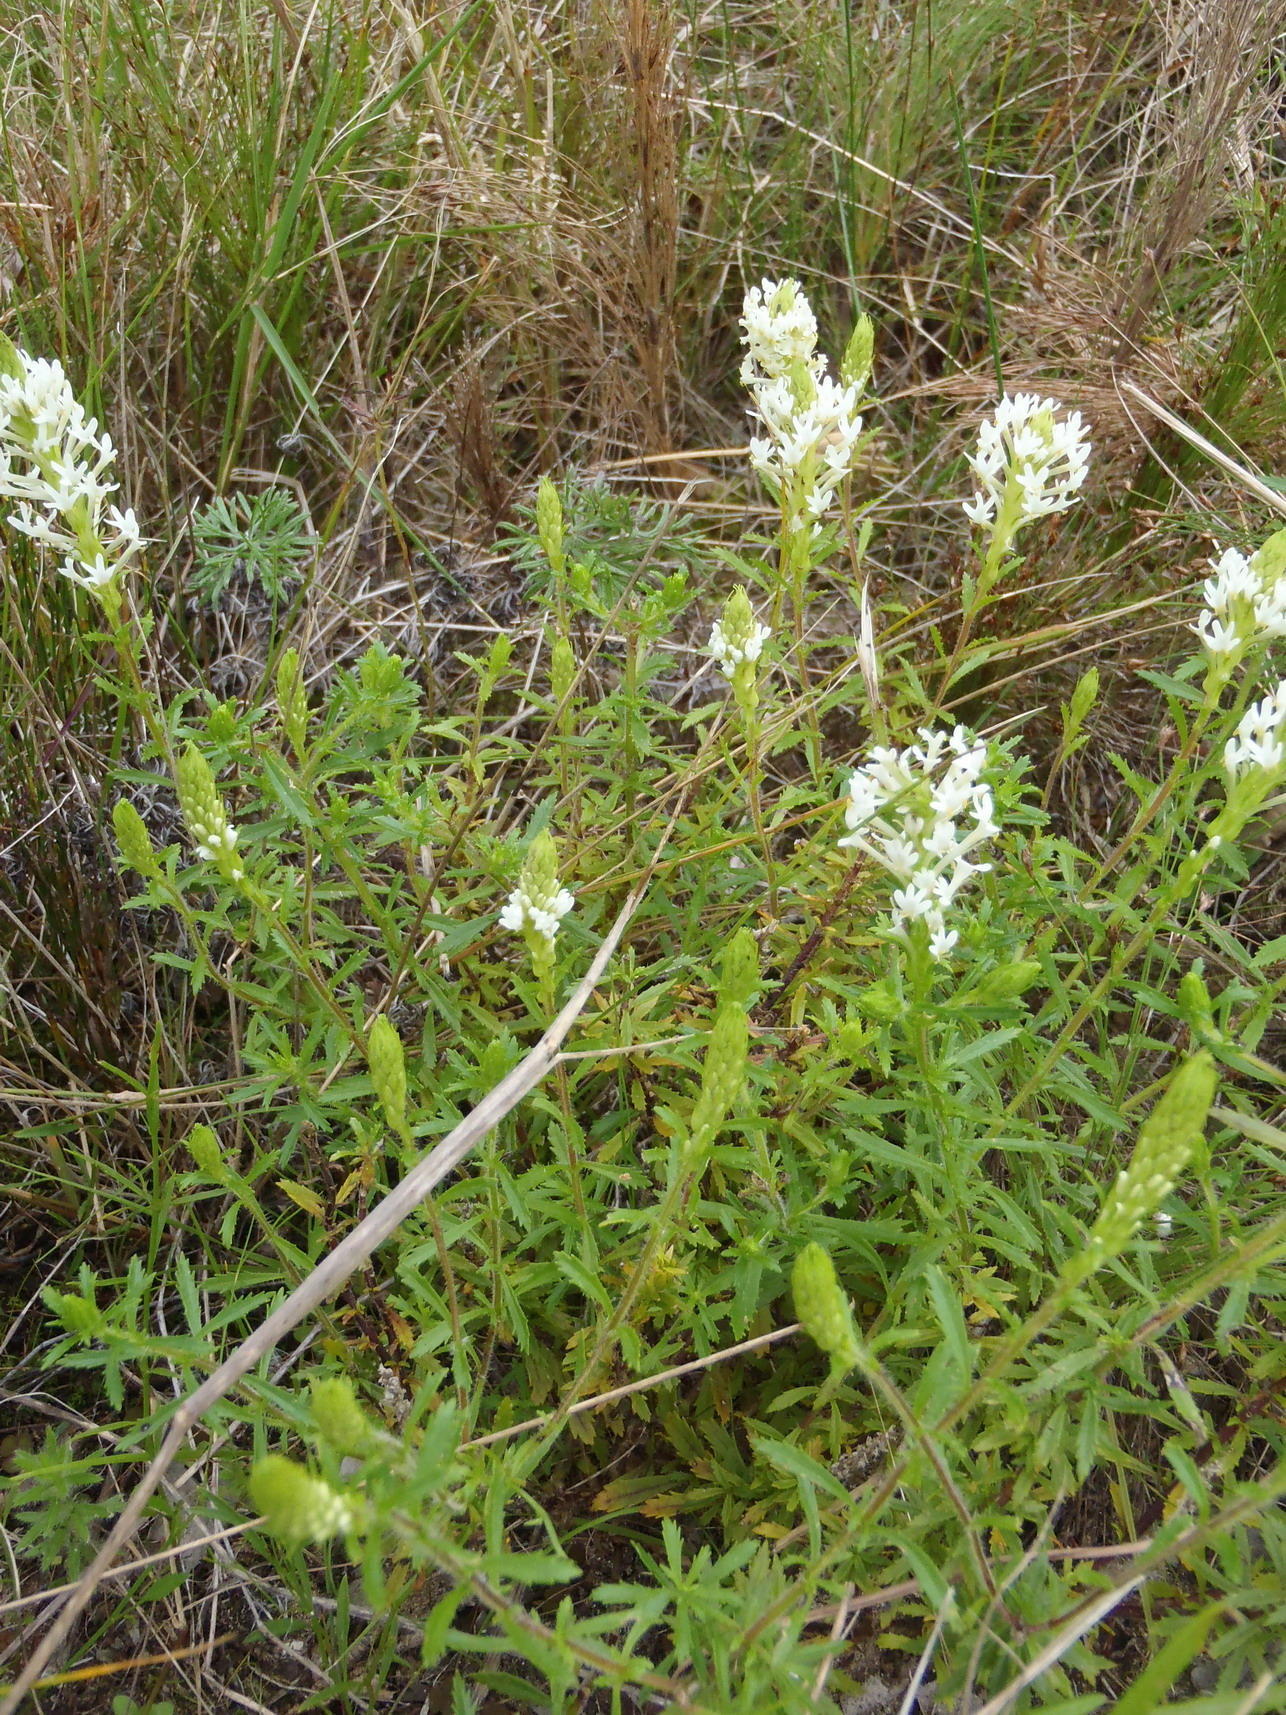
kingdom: Plantae
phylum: Tracheophyta
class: Magnoliopsida
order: Lamiales
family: Scrophulariaceae
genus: Dischisma
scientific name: Dischisma ciliatum
